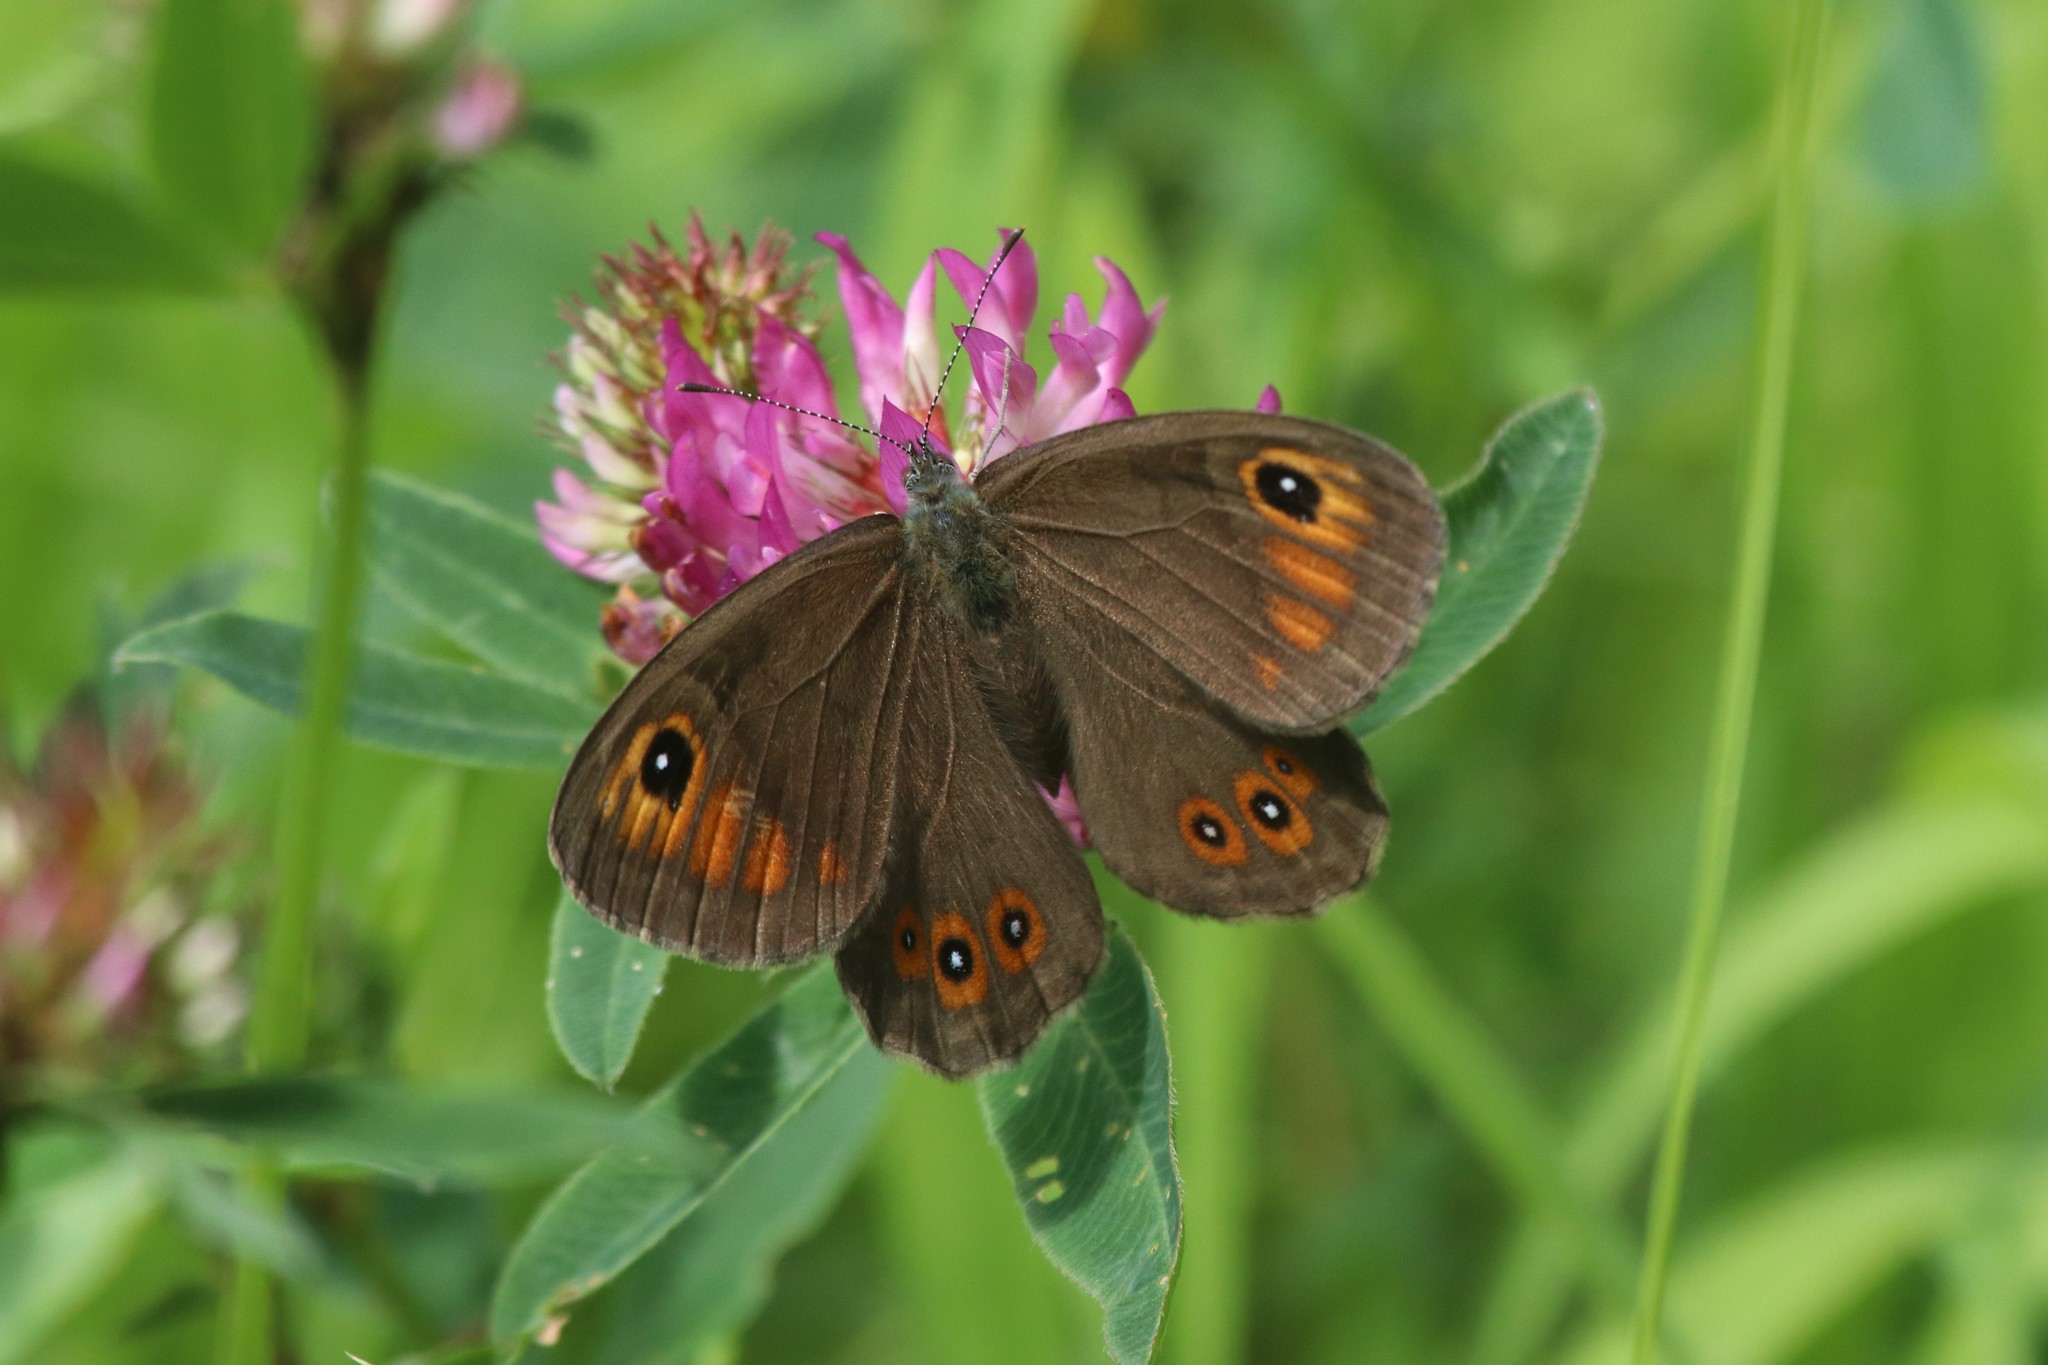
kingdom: Animalia
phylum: Arthropoda
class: Insecta
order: Lepidoptera
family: Nymphalidae
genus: Pararge
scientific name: Pararge Lasiommata maera
